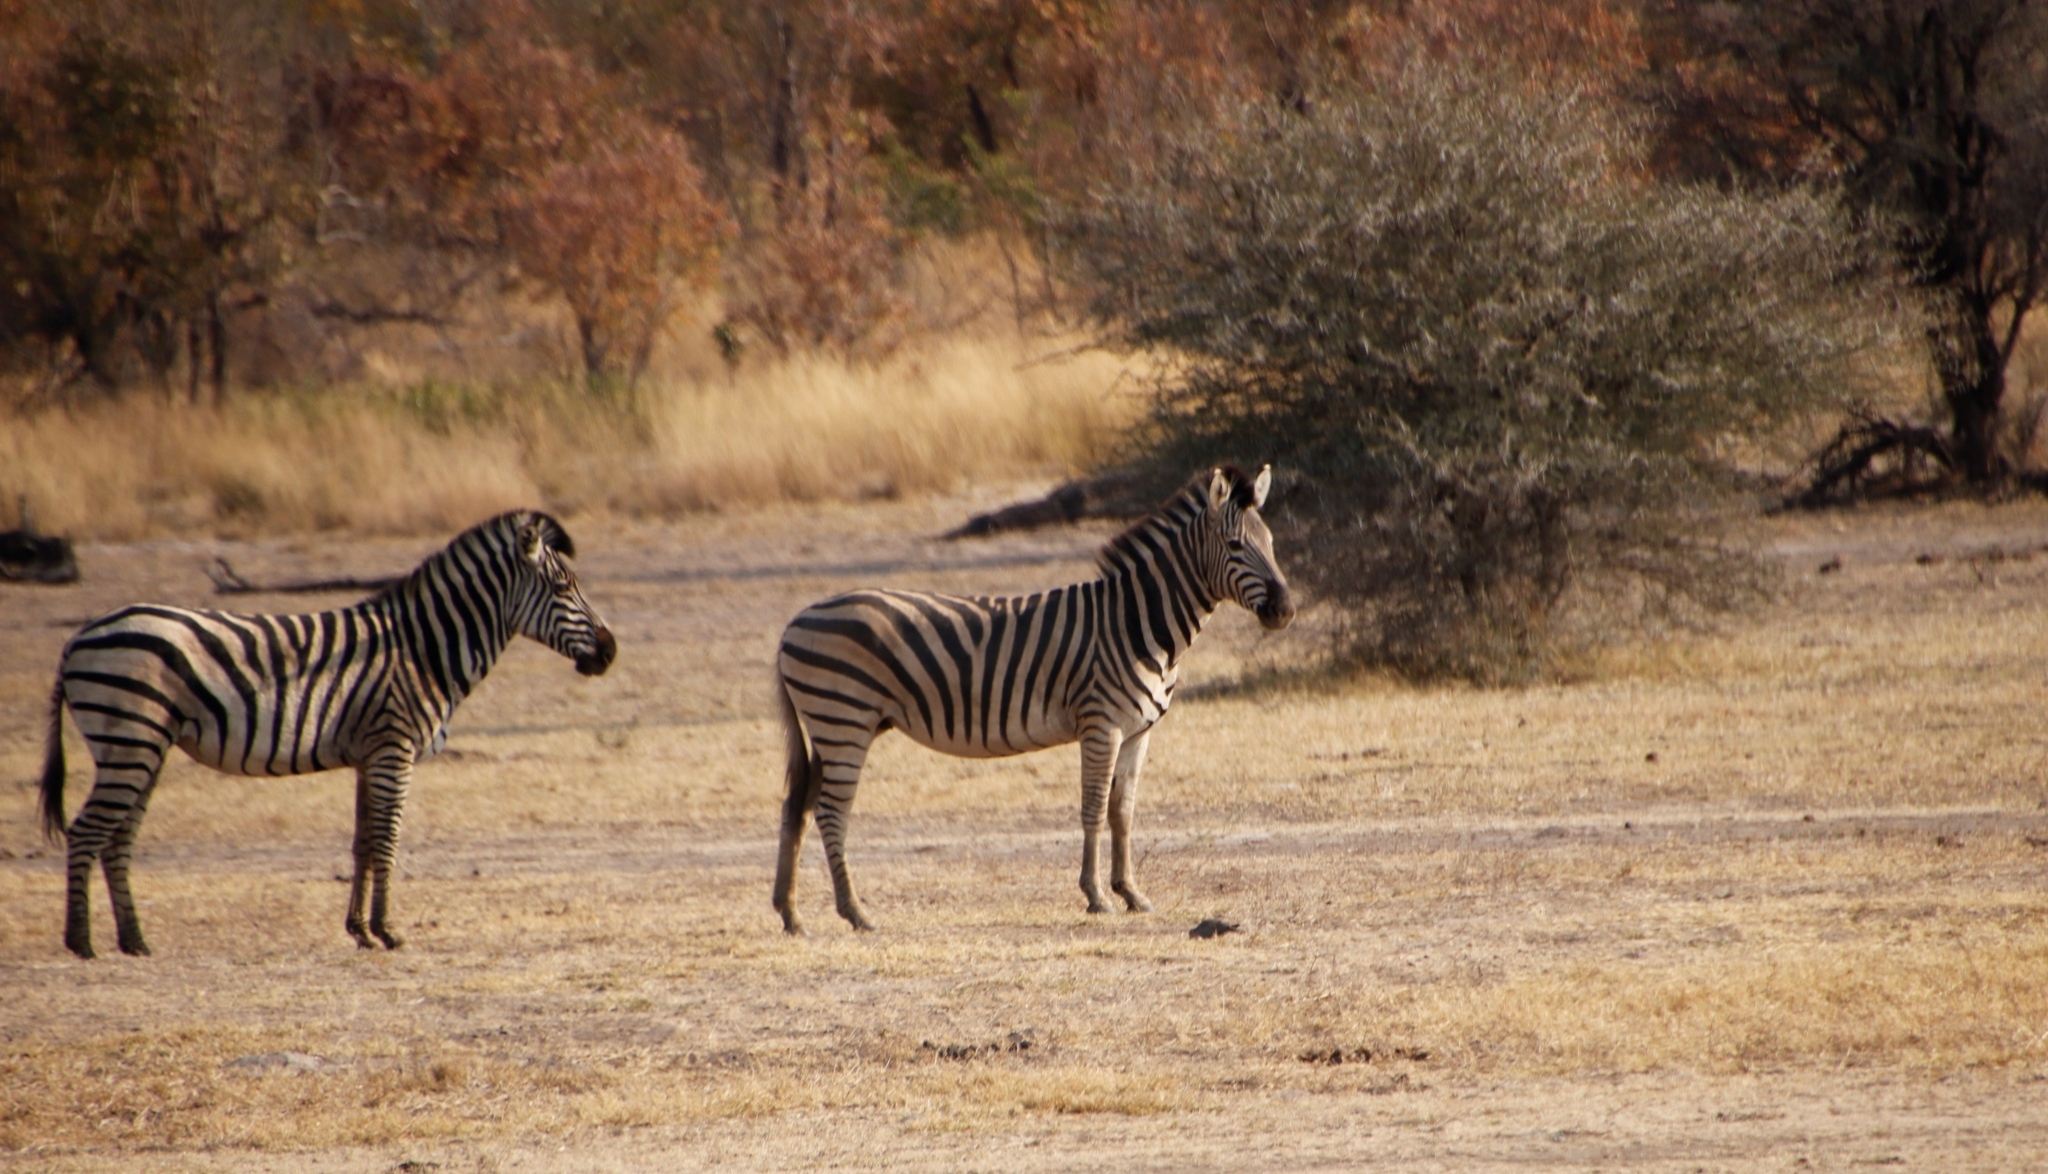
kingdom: Animalia
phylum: Chordata
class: Mammalia
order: Perissodactyla
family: Equidae
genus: Equus
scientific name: Equus quagga
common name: Plains zebra
